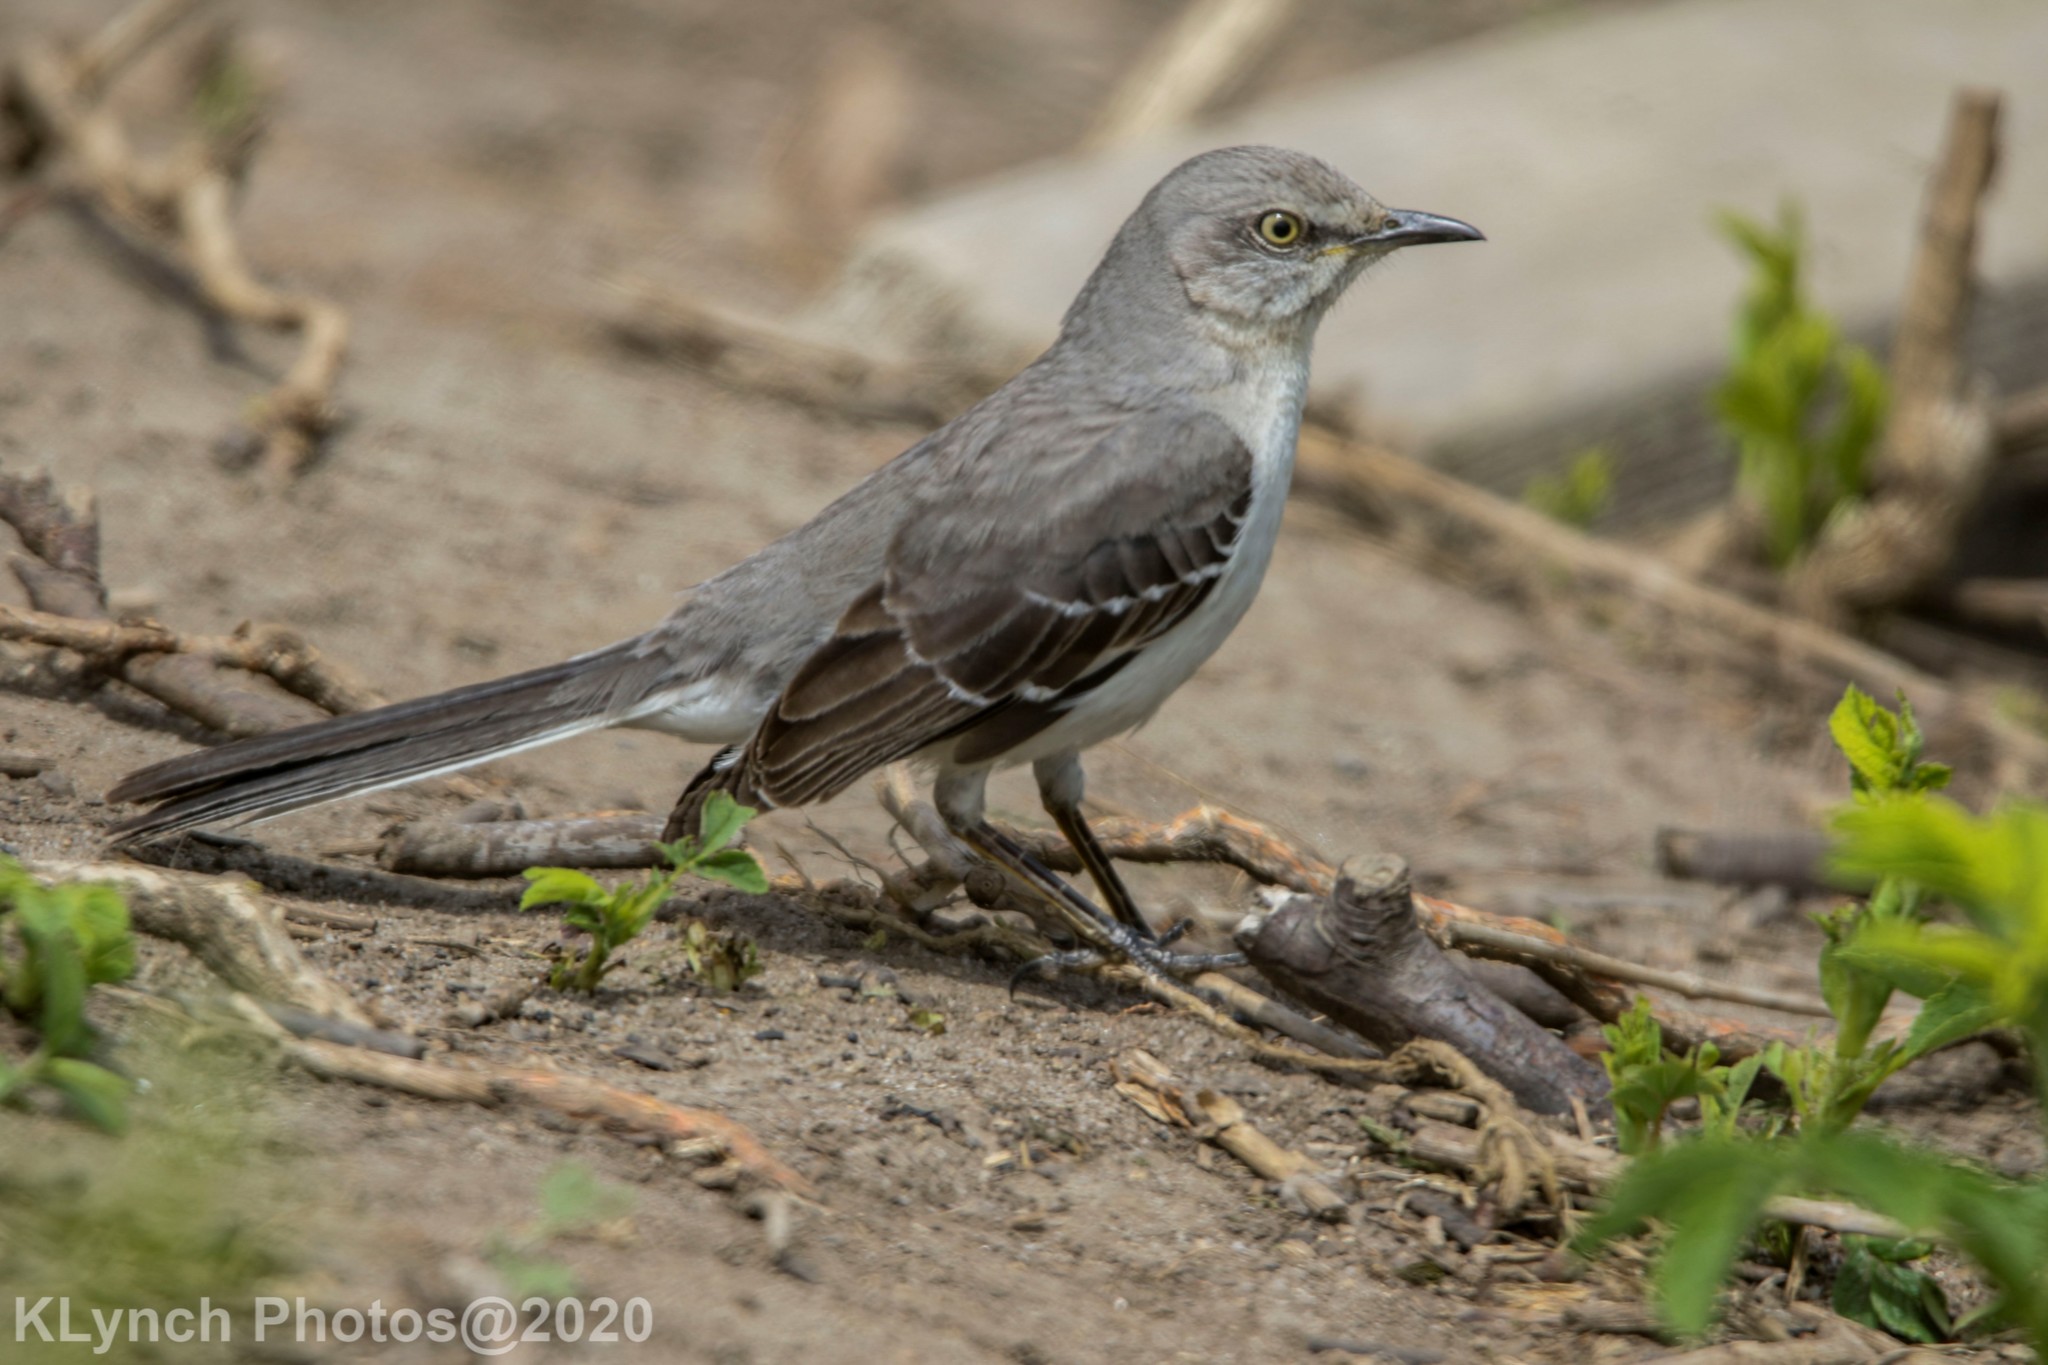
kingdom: Animalia
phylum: Chordata
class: Aves
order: Passeriformes
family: Mimidae
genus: Mimus
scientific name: Mimus polyglottos
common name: Northern mockingbird
